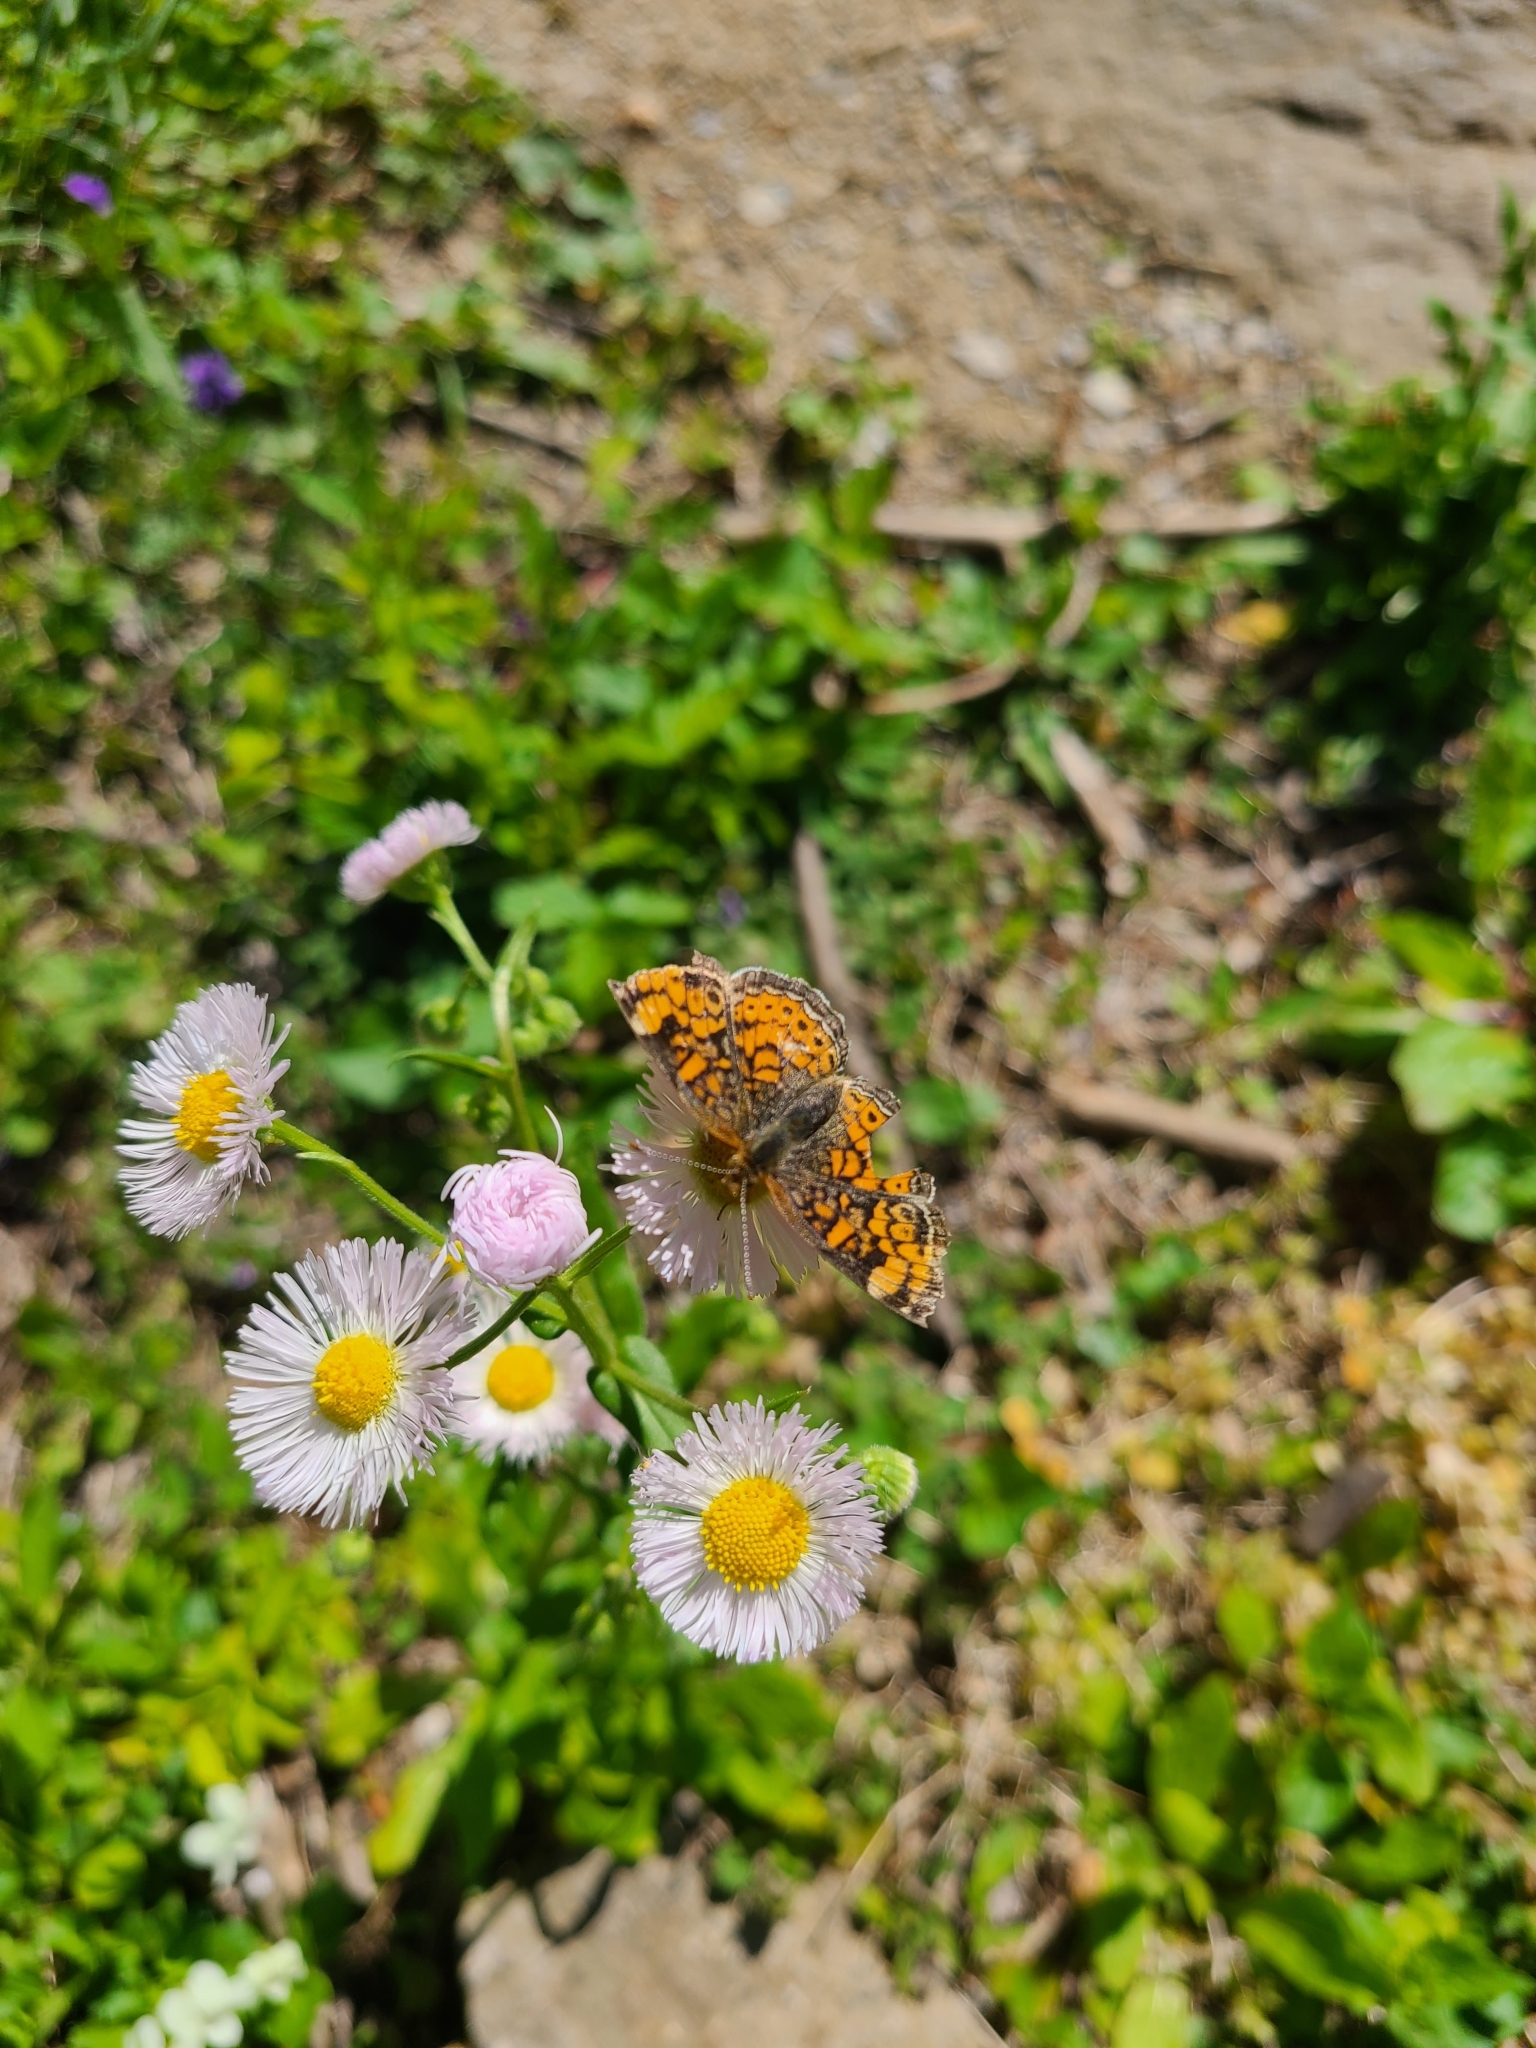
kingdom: Plantae
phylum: Tracheophyta
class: Magnoliopsida
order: Asterales
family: Asteraceae
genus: Erigeron
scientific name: Erigeron philadelphicus
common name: Robin's-plantain
